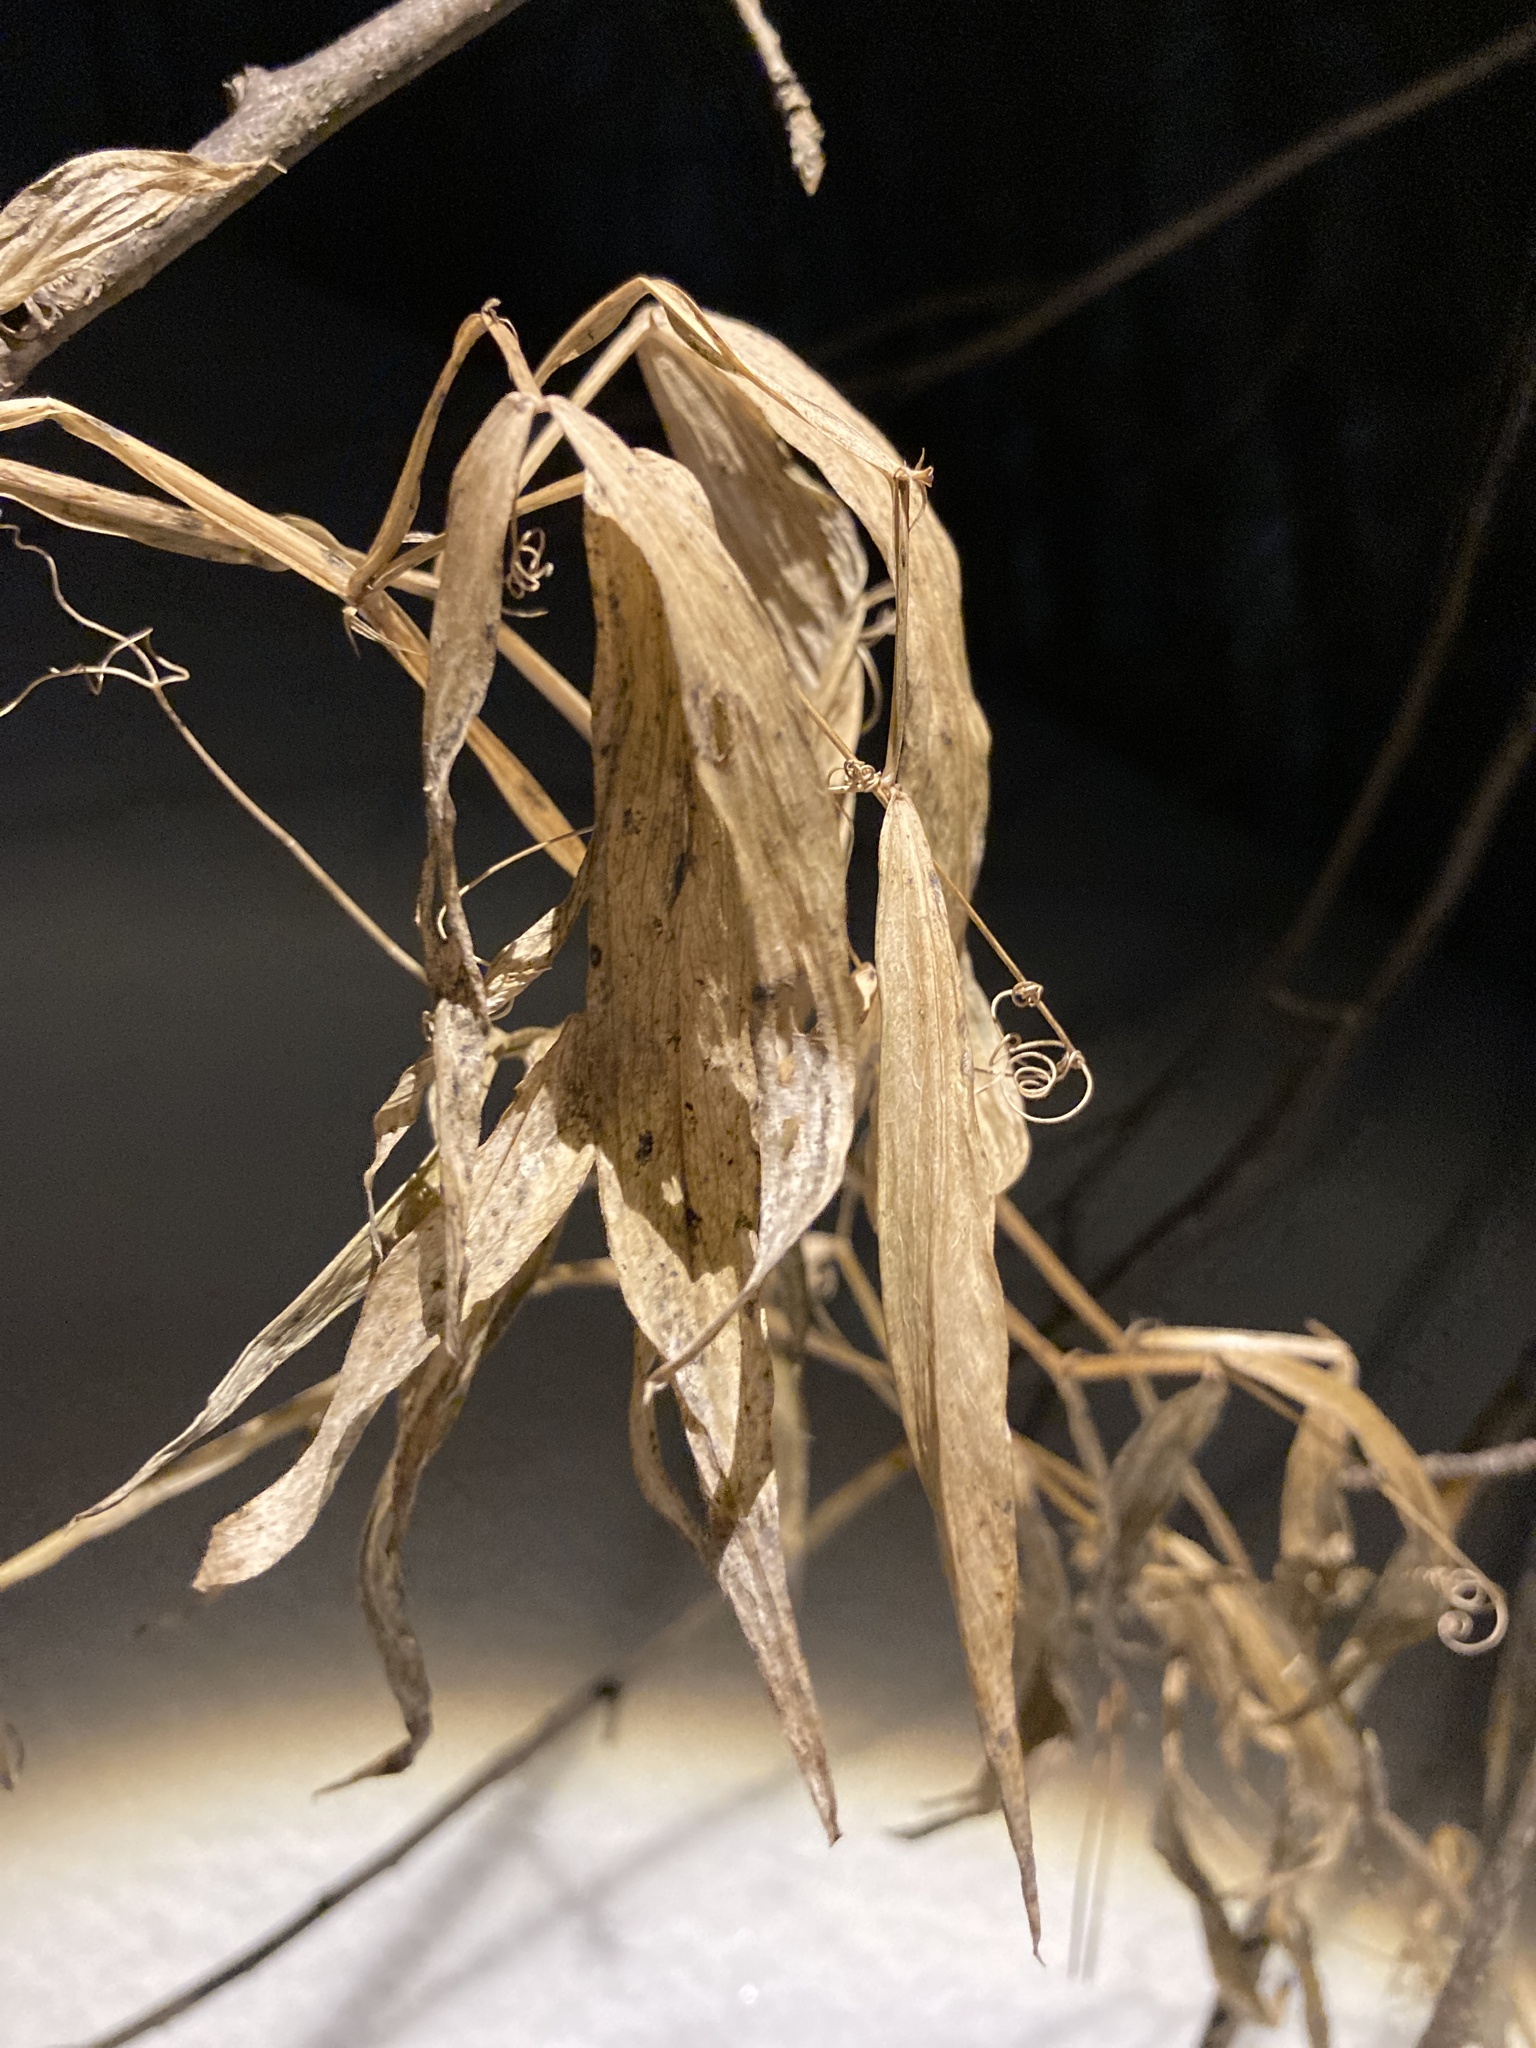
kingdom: Plantae
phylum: Tracheophyta
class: Magnoliopsida
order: Fabales
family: Fabaceae
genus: Lathyrus
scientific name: Lathyrus sylvestris
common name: Flat pea
